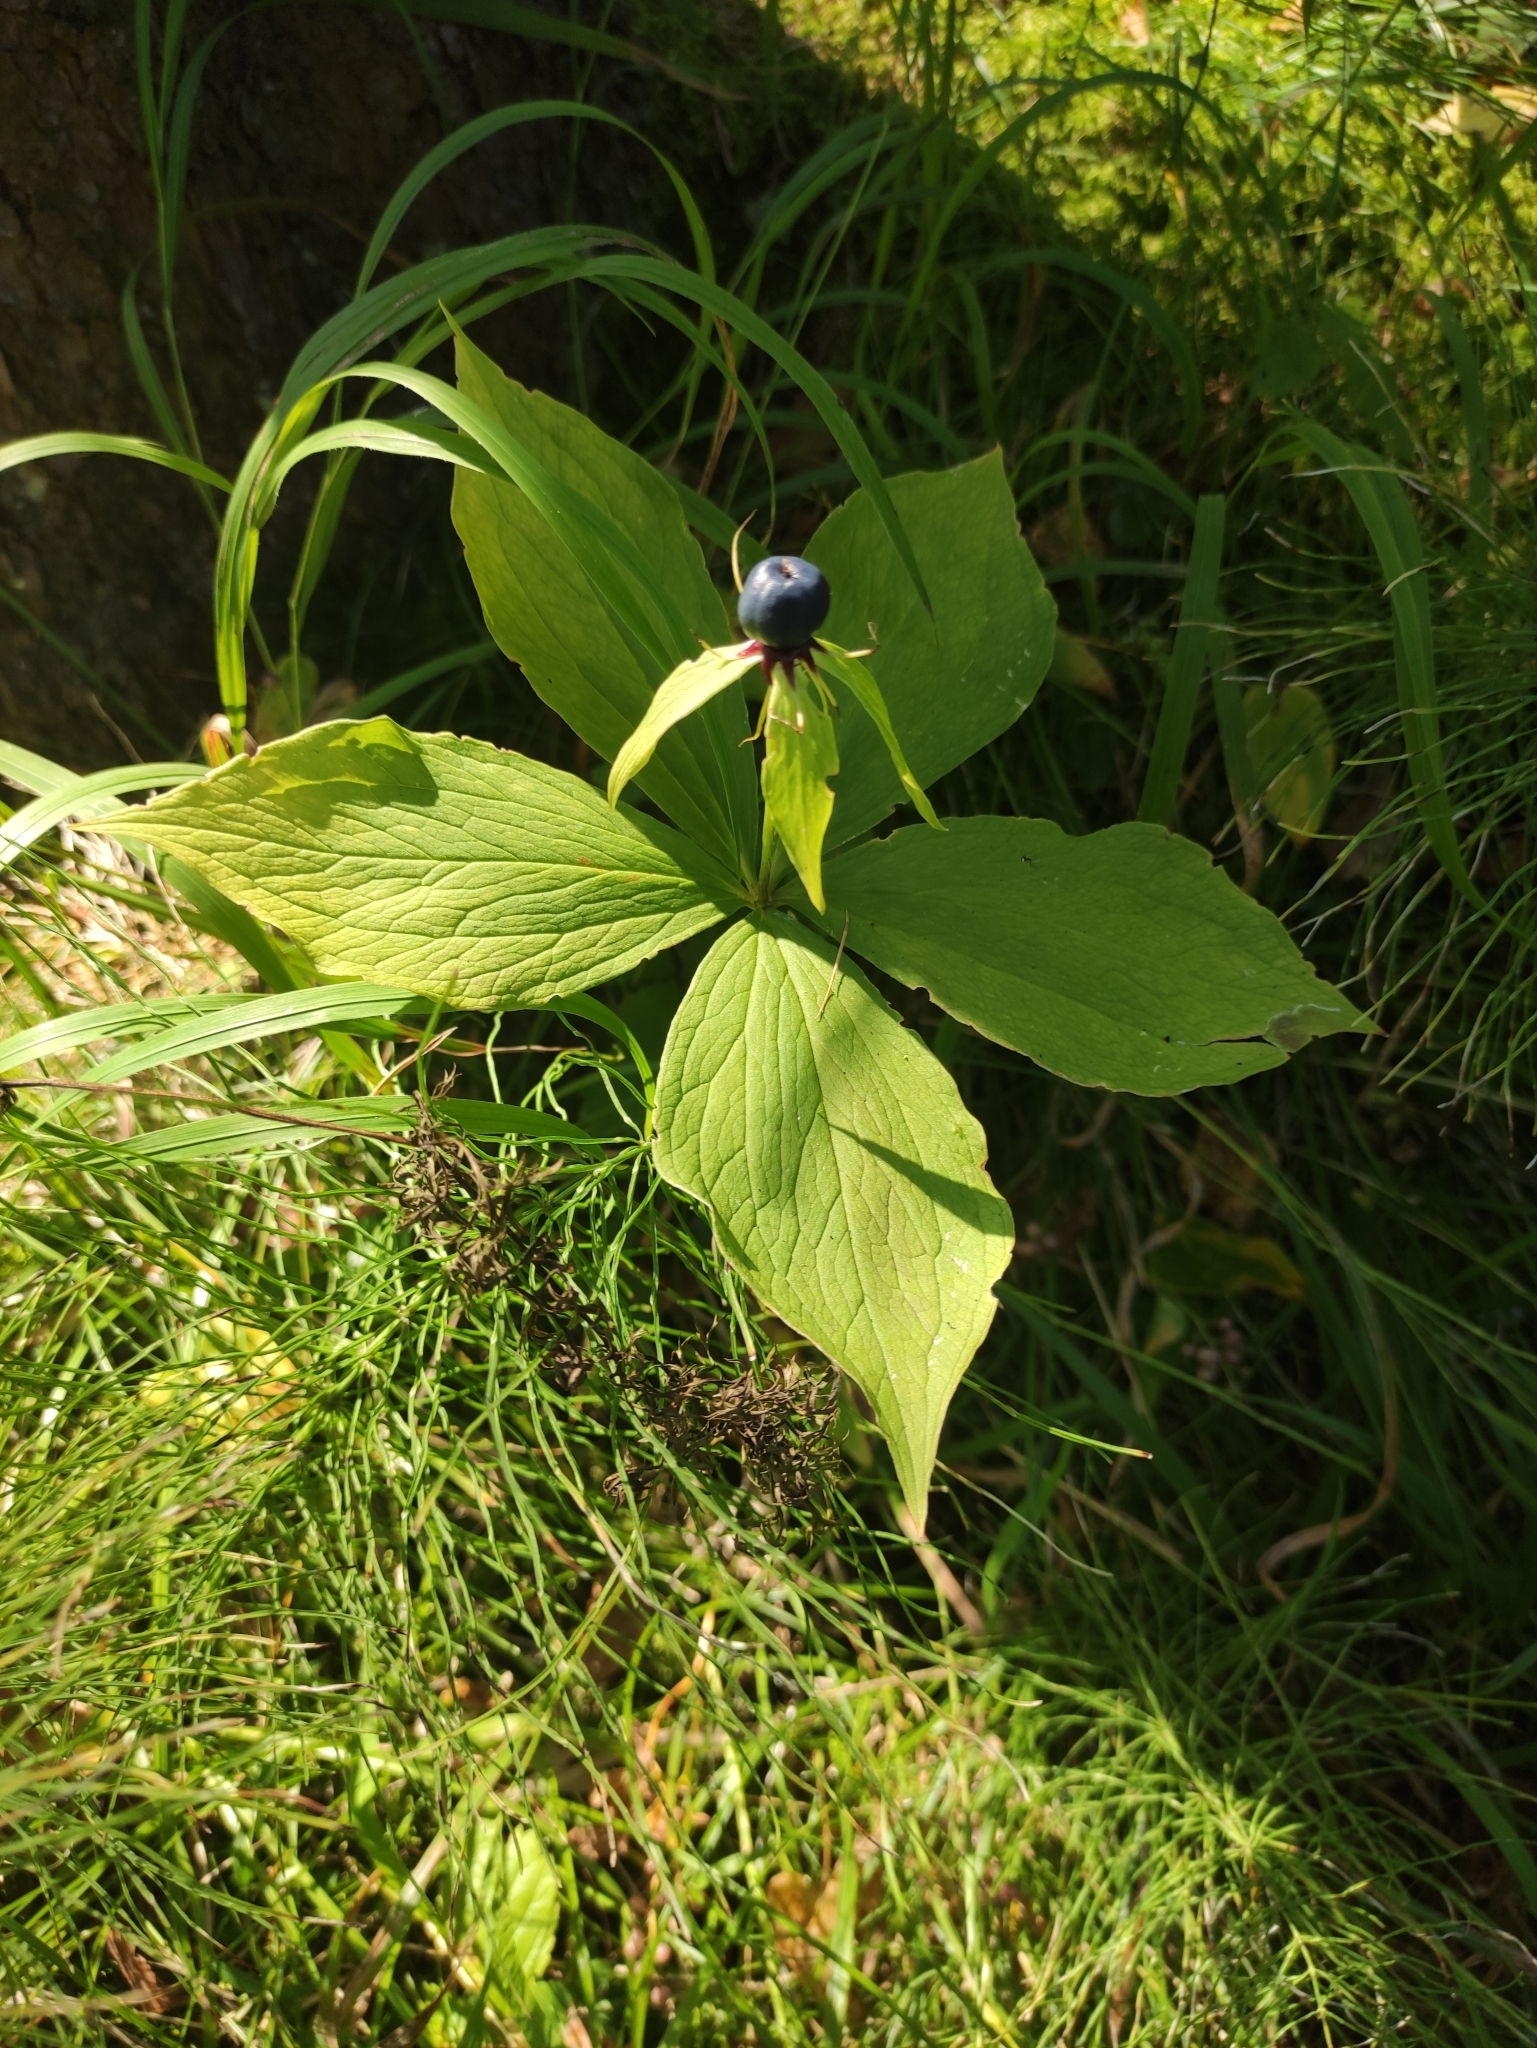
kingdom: Plantae
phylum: Tracheophyta
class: Liliopsida
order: Liliales
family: Melanthiaceae
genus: Paris
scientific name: Paris verticillata
